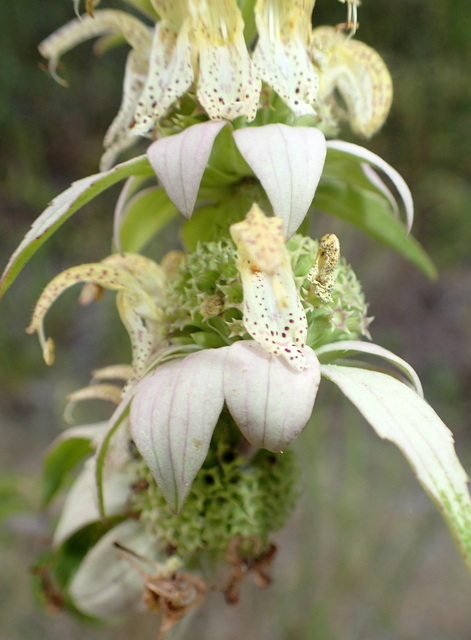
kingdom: Plantae
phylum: Tracheophyta
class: Magnoliopsida
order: Lamiales
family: Lamiaceae
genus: Monarda
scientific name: Monarda punctata
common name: Dotted monarda
